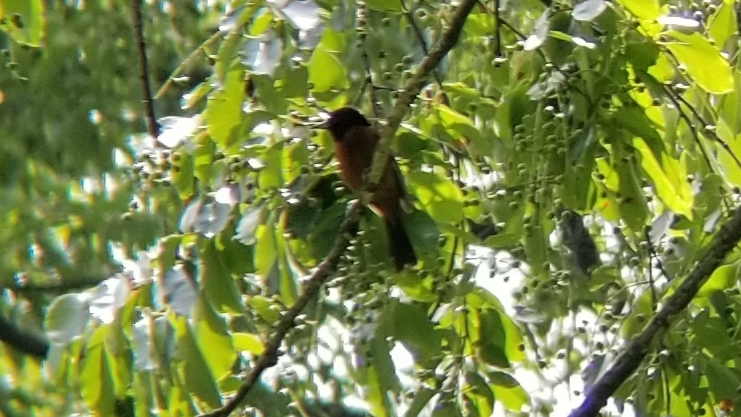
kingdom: Animalia
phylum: Chordata
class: Aves
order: Passeriformes
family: Icteridae
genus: Icterus
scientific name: Icterus spurius
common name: Orchard oriole
